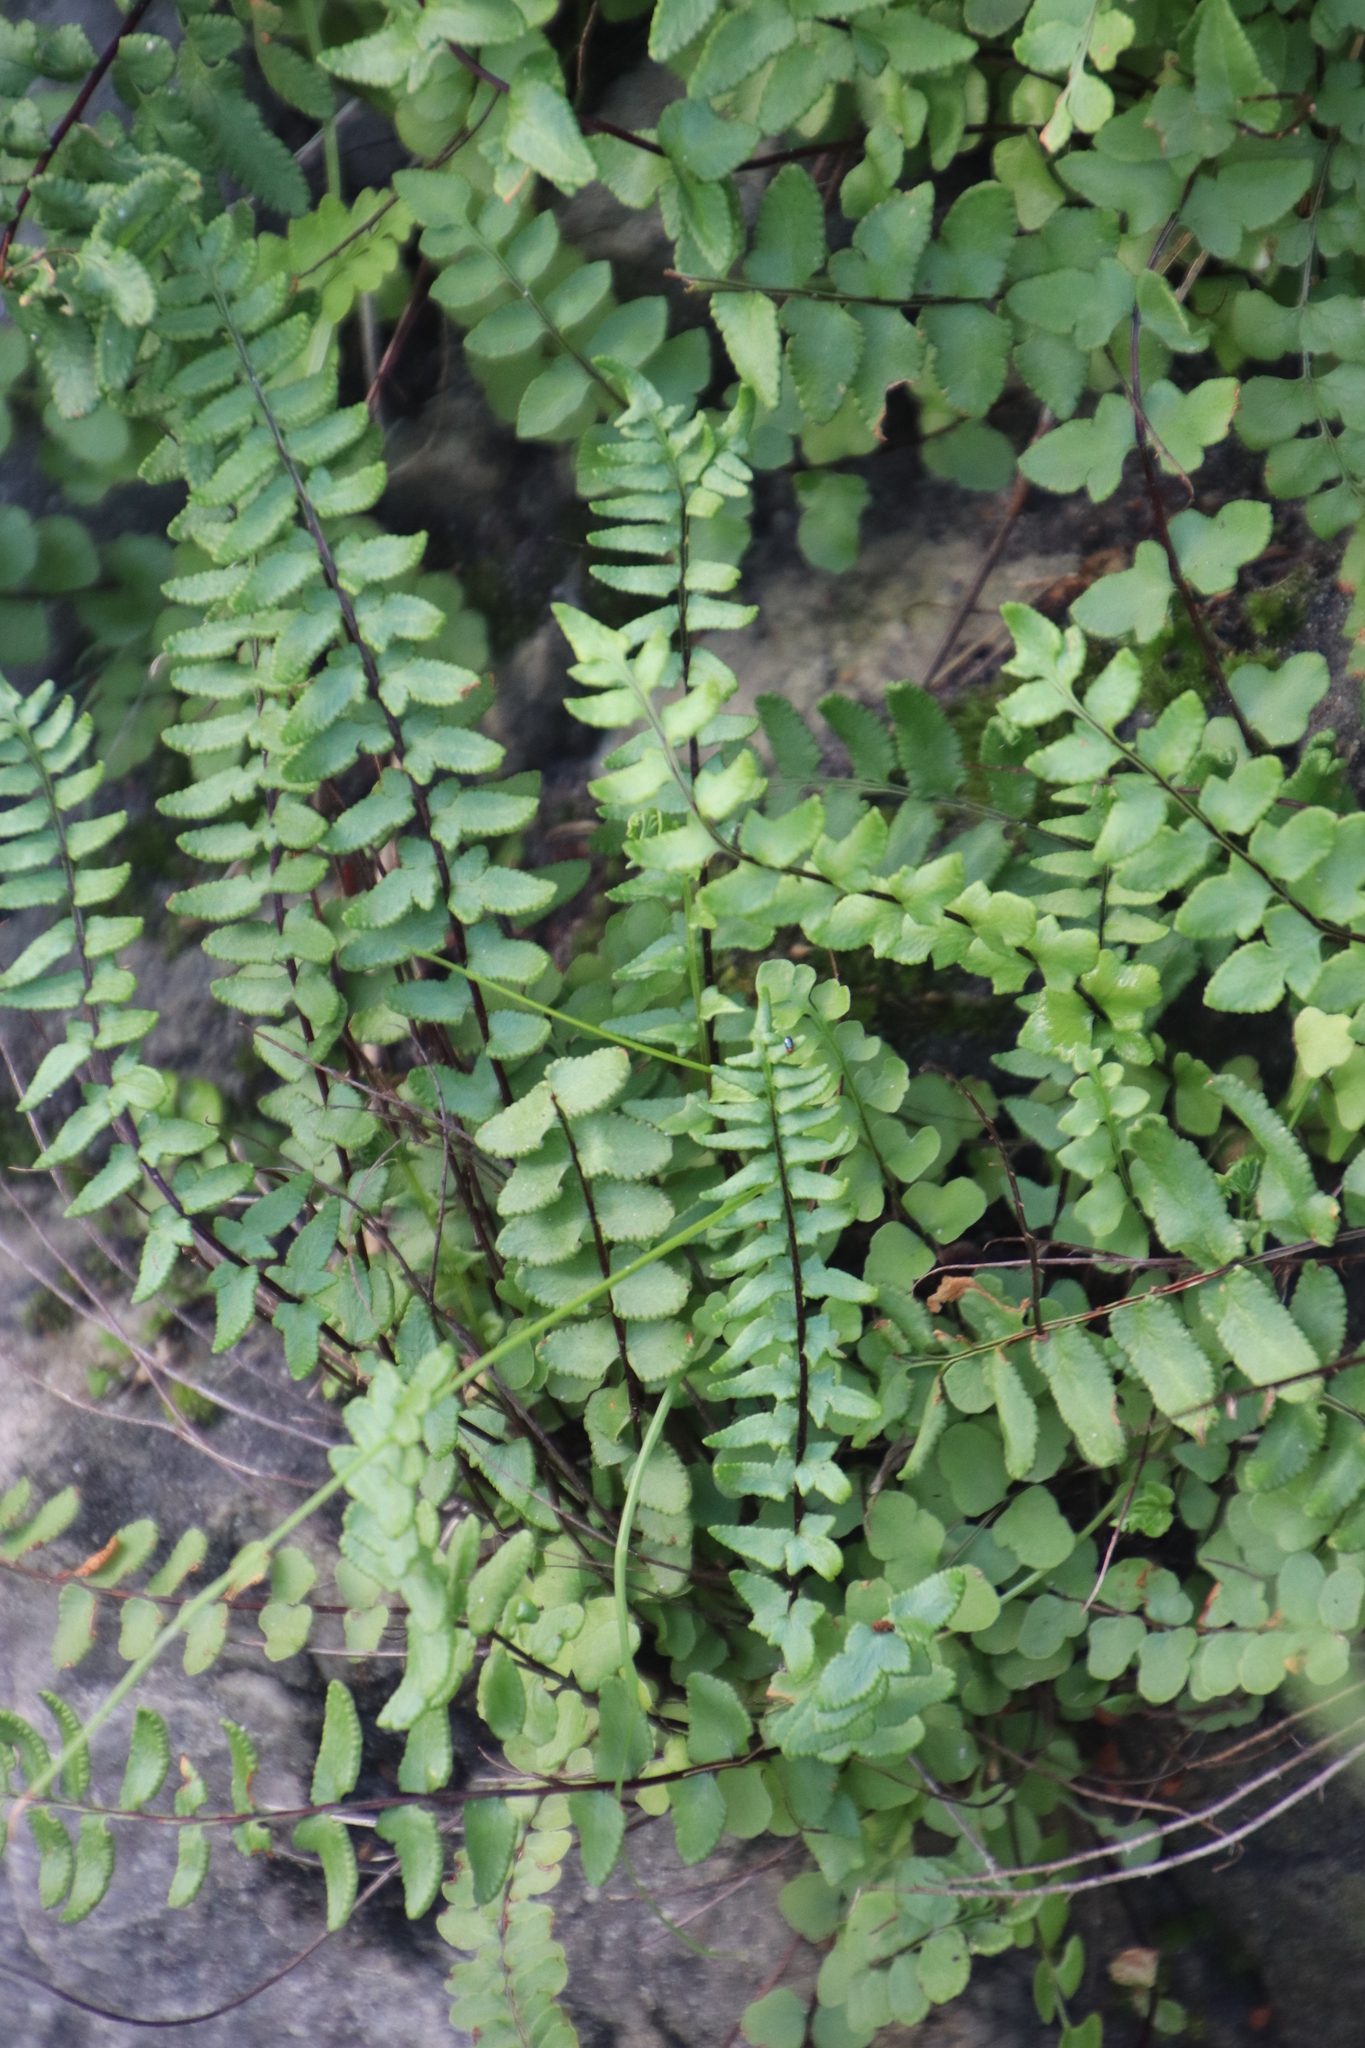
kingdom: Plantae
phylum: Tracheophyta
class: Polypodiopsida
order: Polypodiales
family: Pteridaceae
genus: Cheilanthes
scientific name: Cheilanthes hastata
